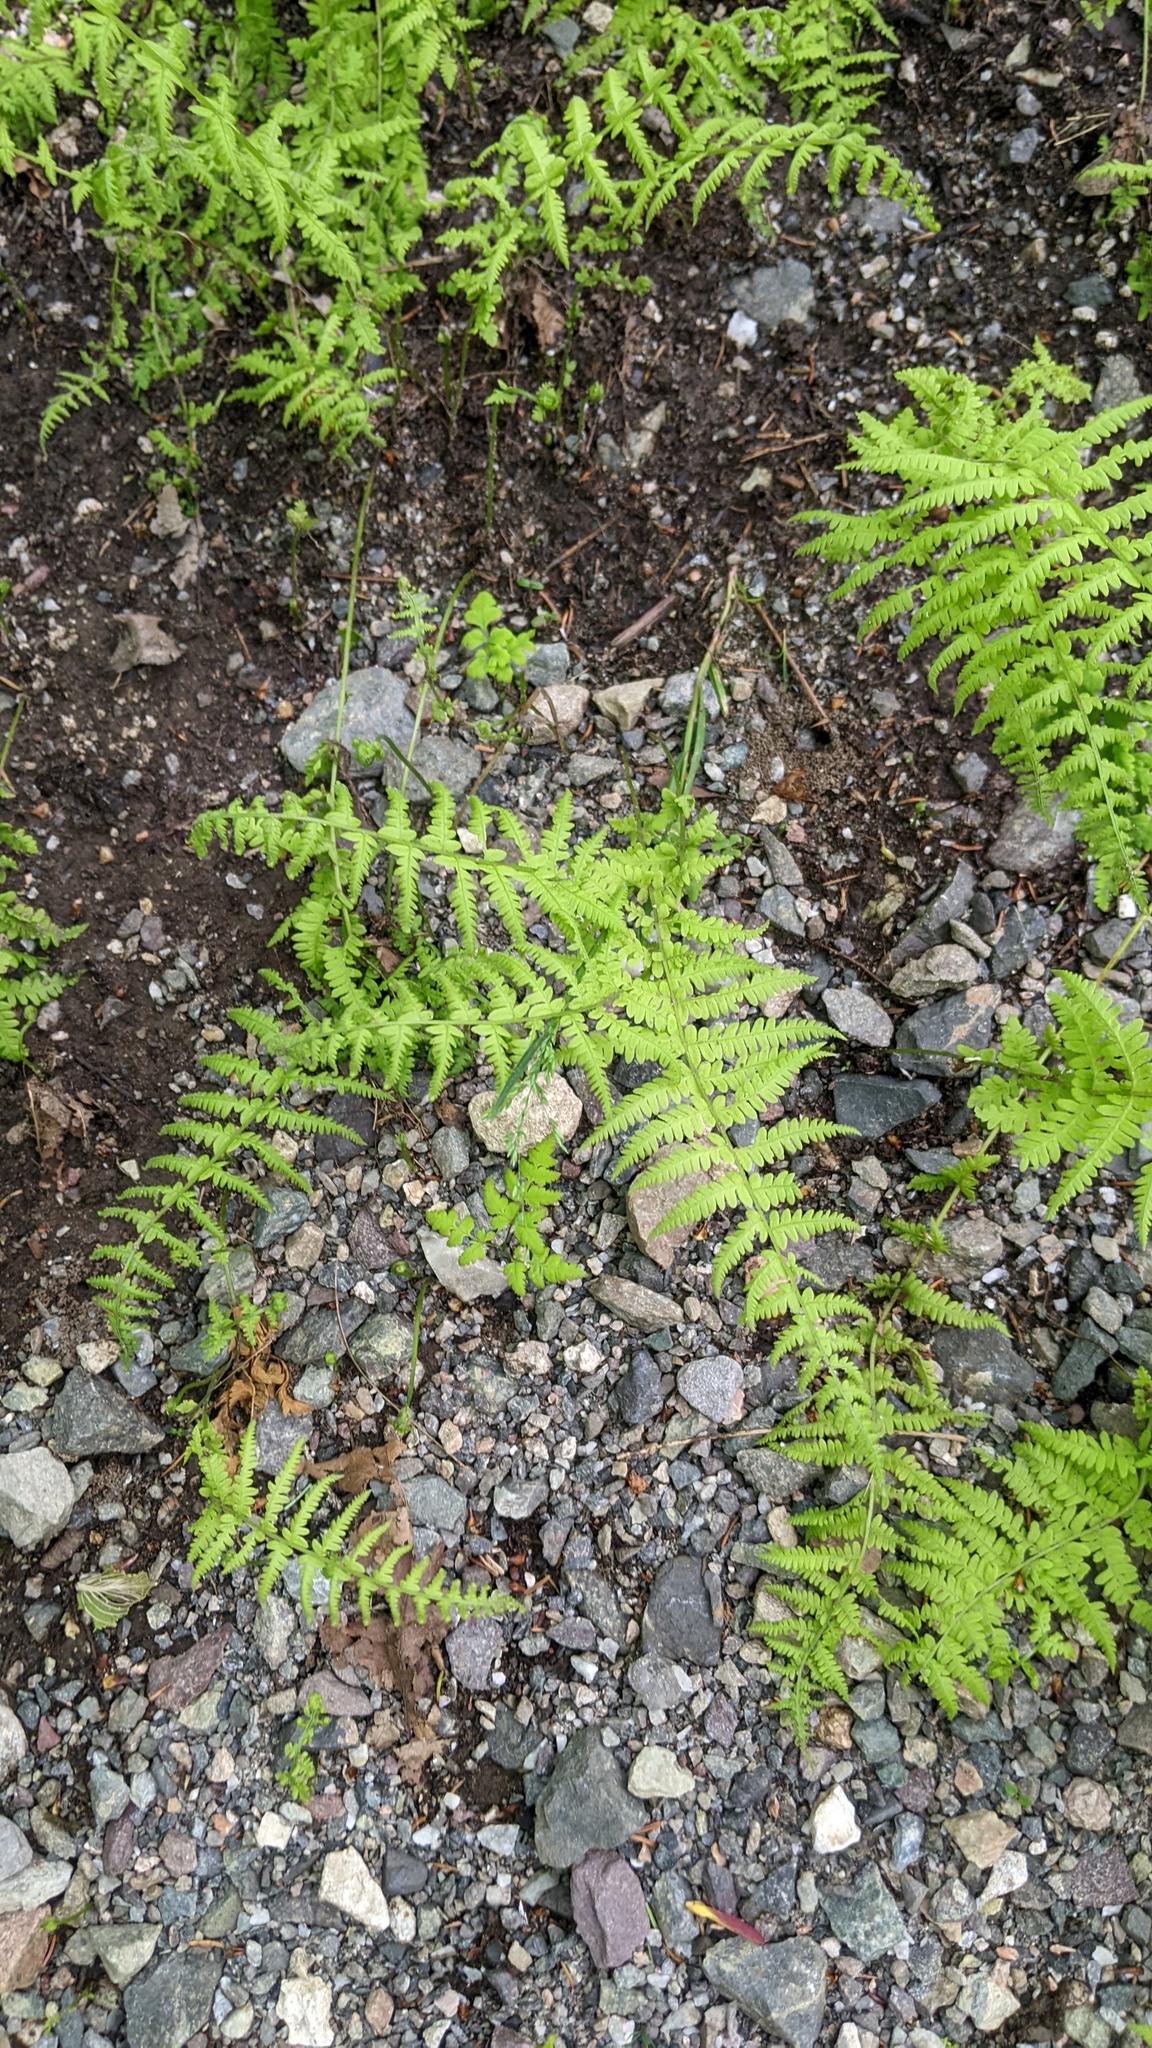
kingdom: Plantae
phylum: Tracheophyta
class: Polypodiopsida
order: Polypodiales
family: Thelypteridaceae
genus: Amauropelta
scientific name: Amauropelta noveboracensis
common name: New york fern
